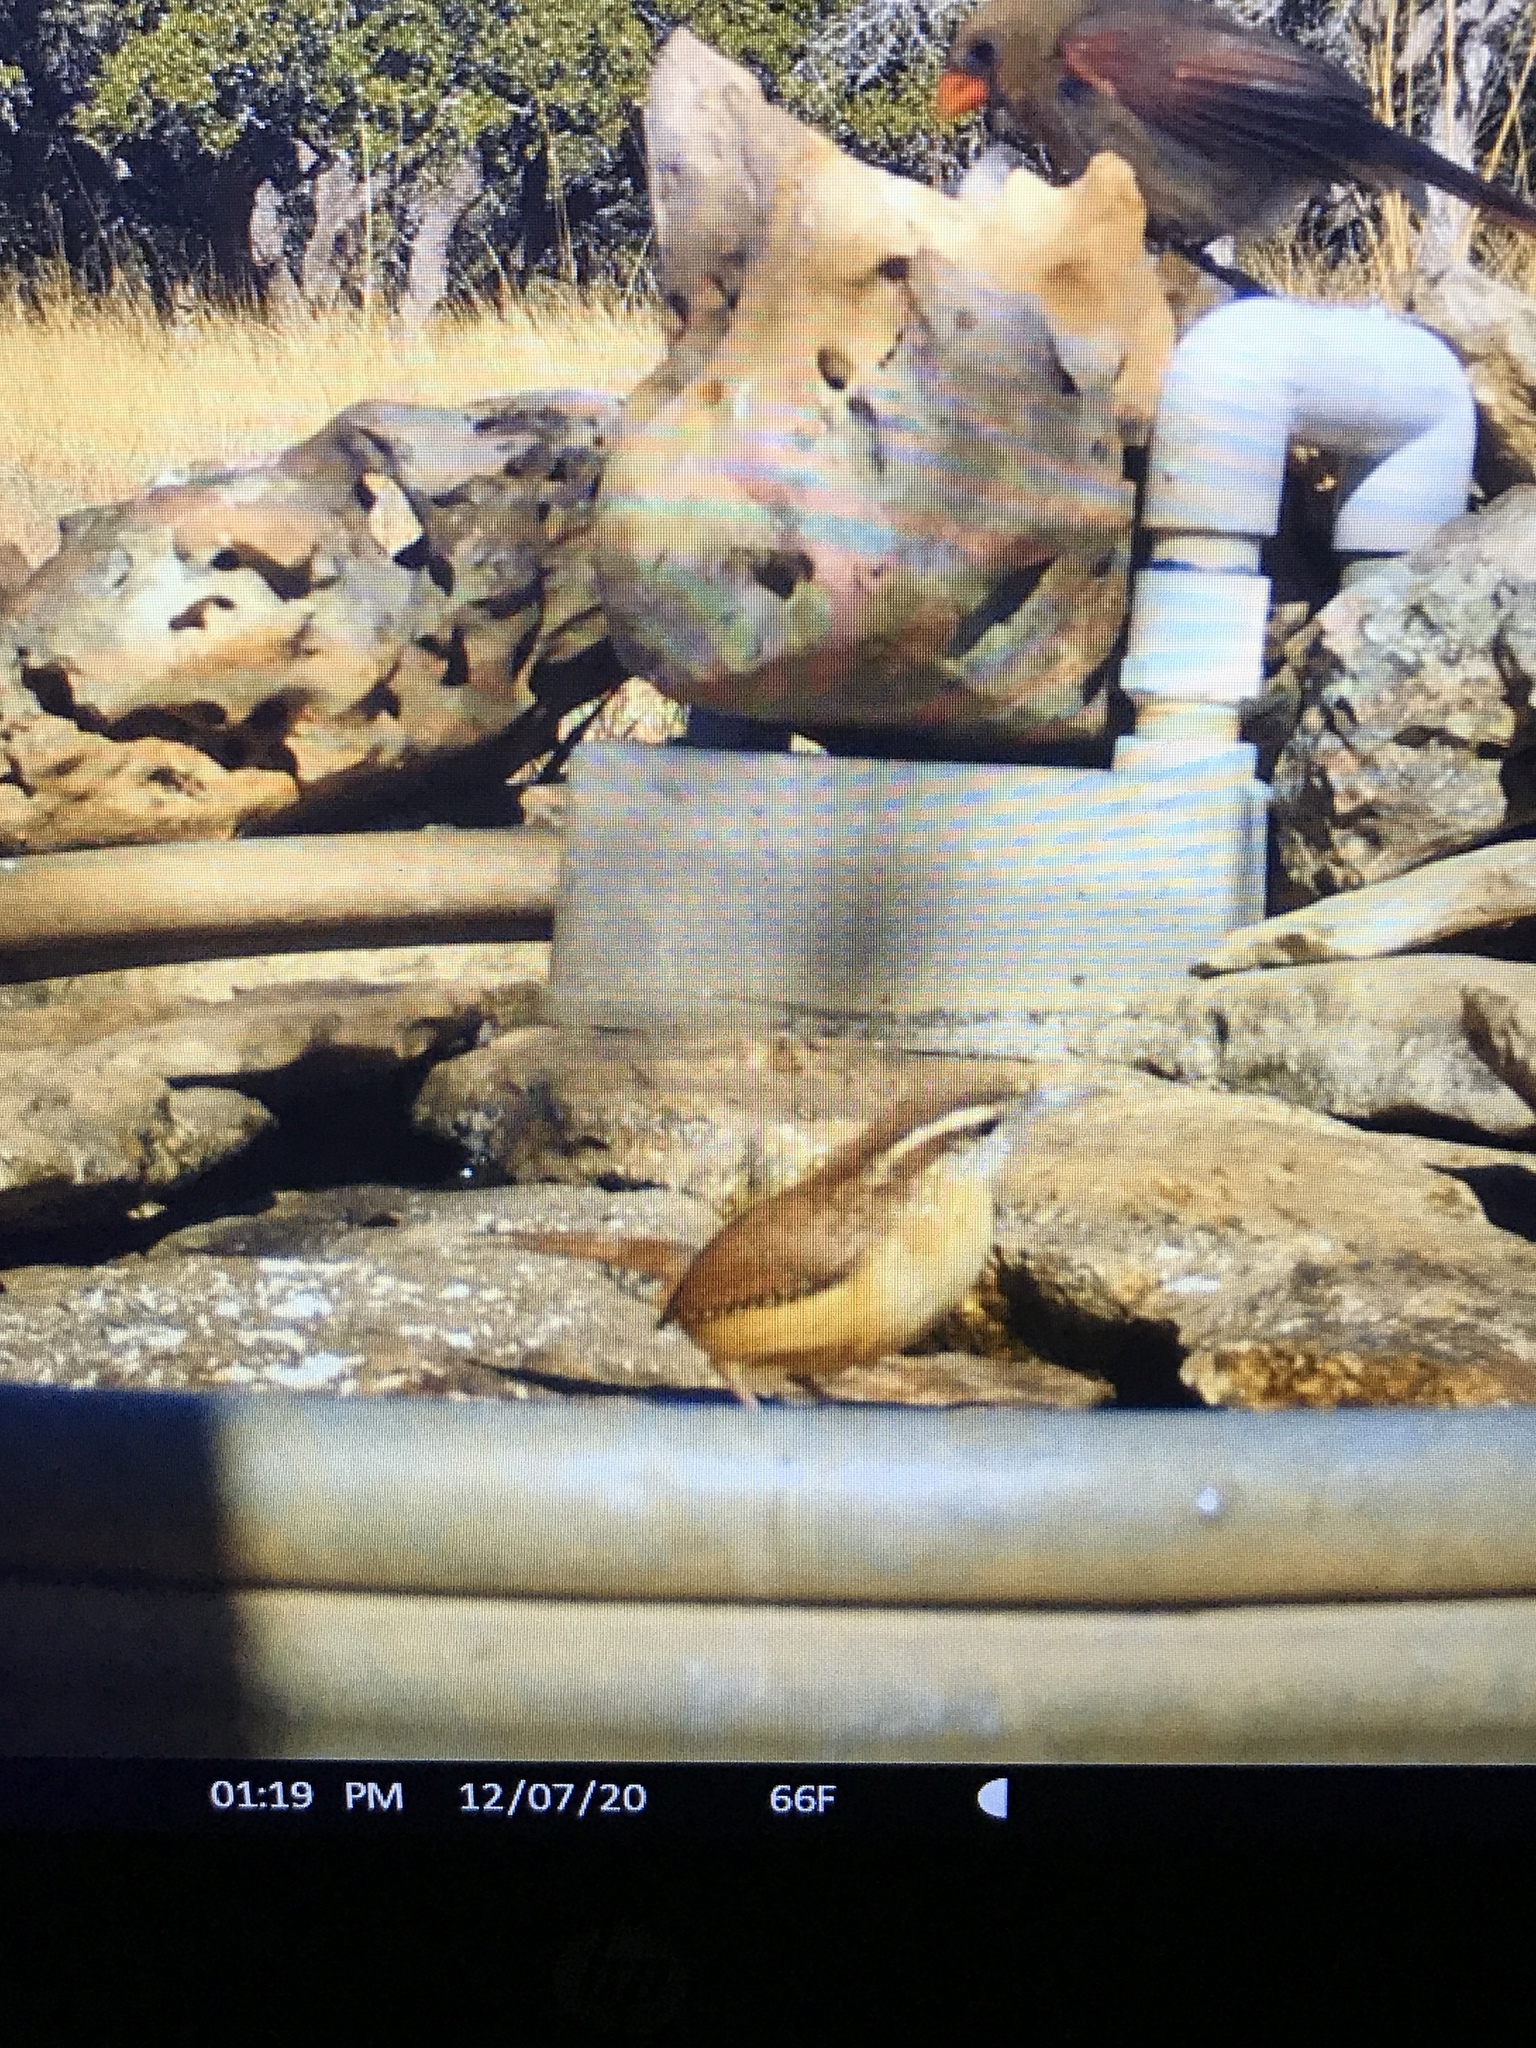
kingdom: Animalia
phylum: Chordata
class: Aves
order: Passeriformes
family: Troglodytidae
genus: Thryothorus
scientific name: Thryothorus ludovicianus
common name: Carolina wren
